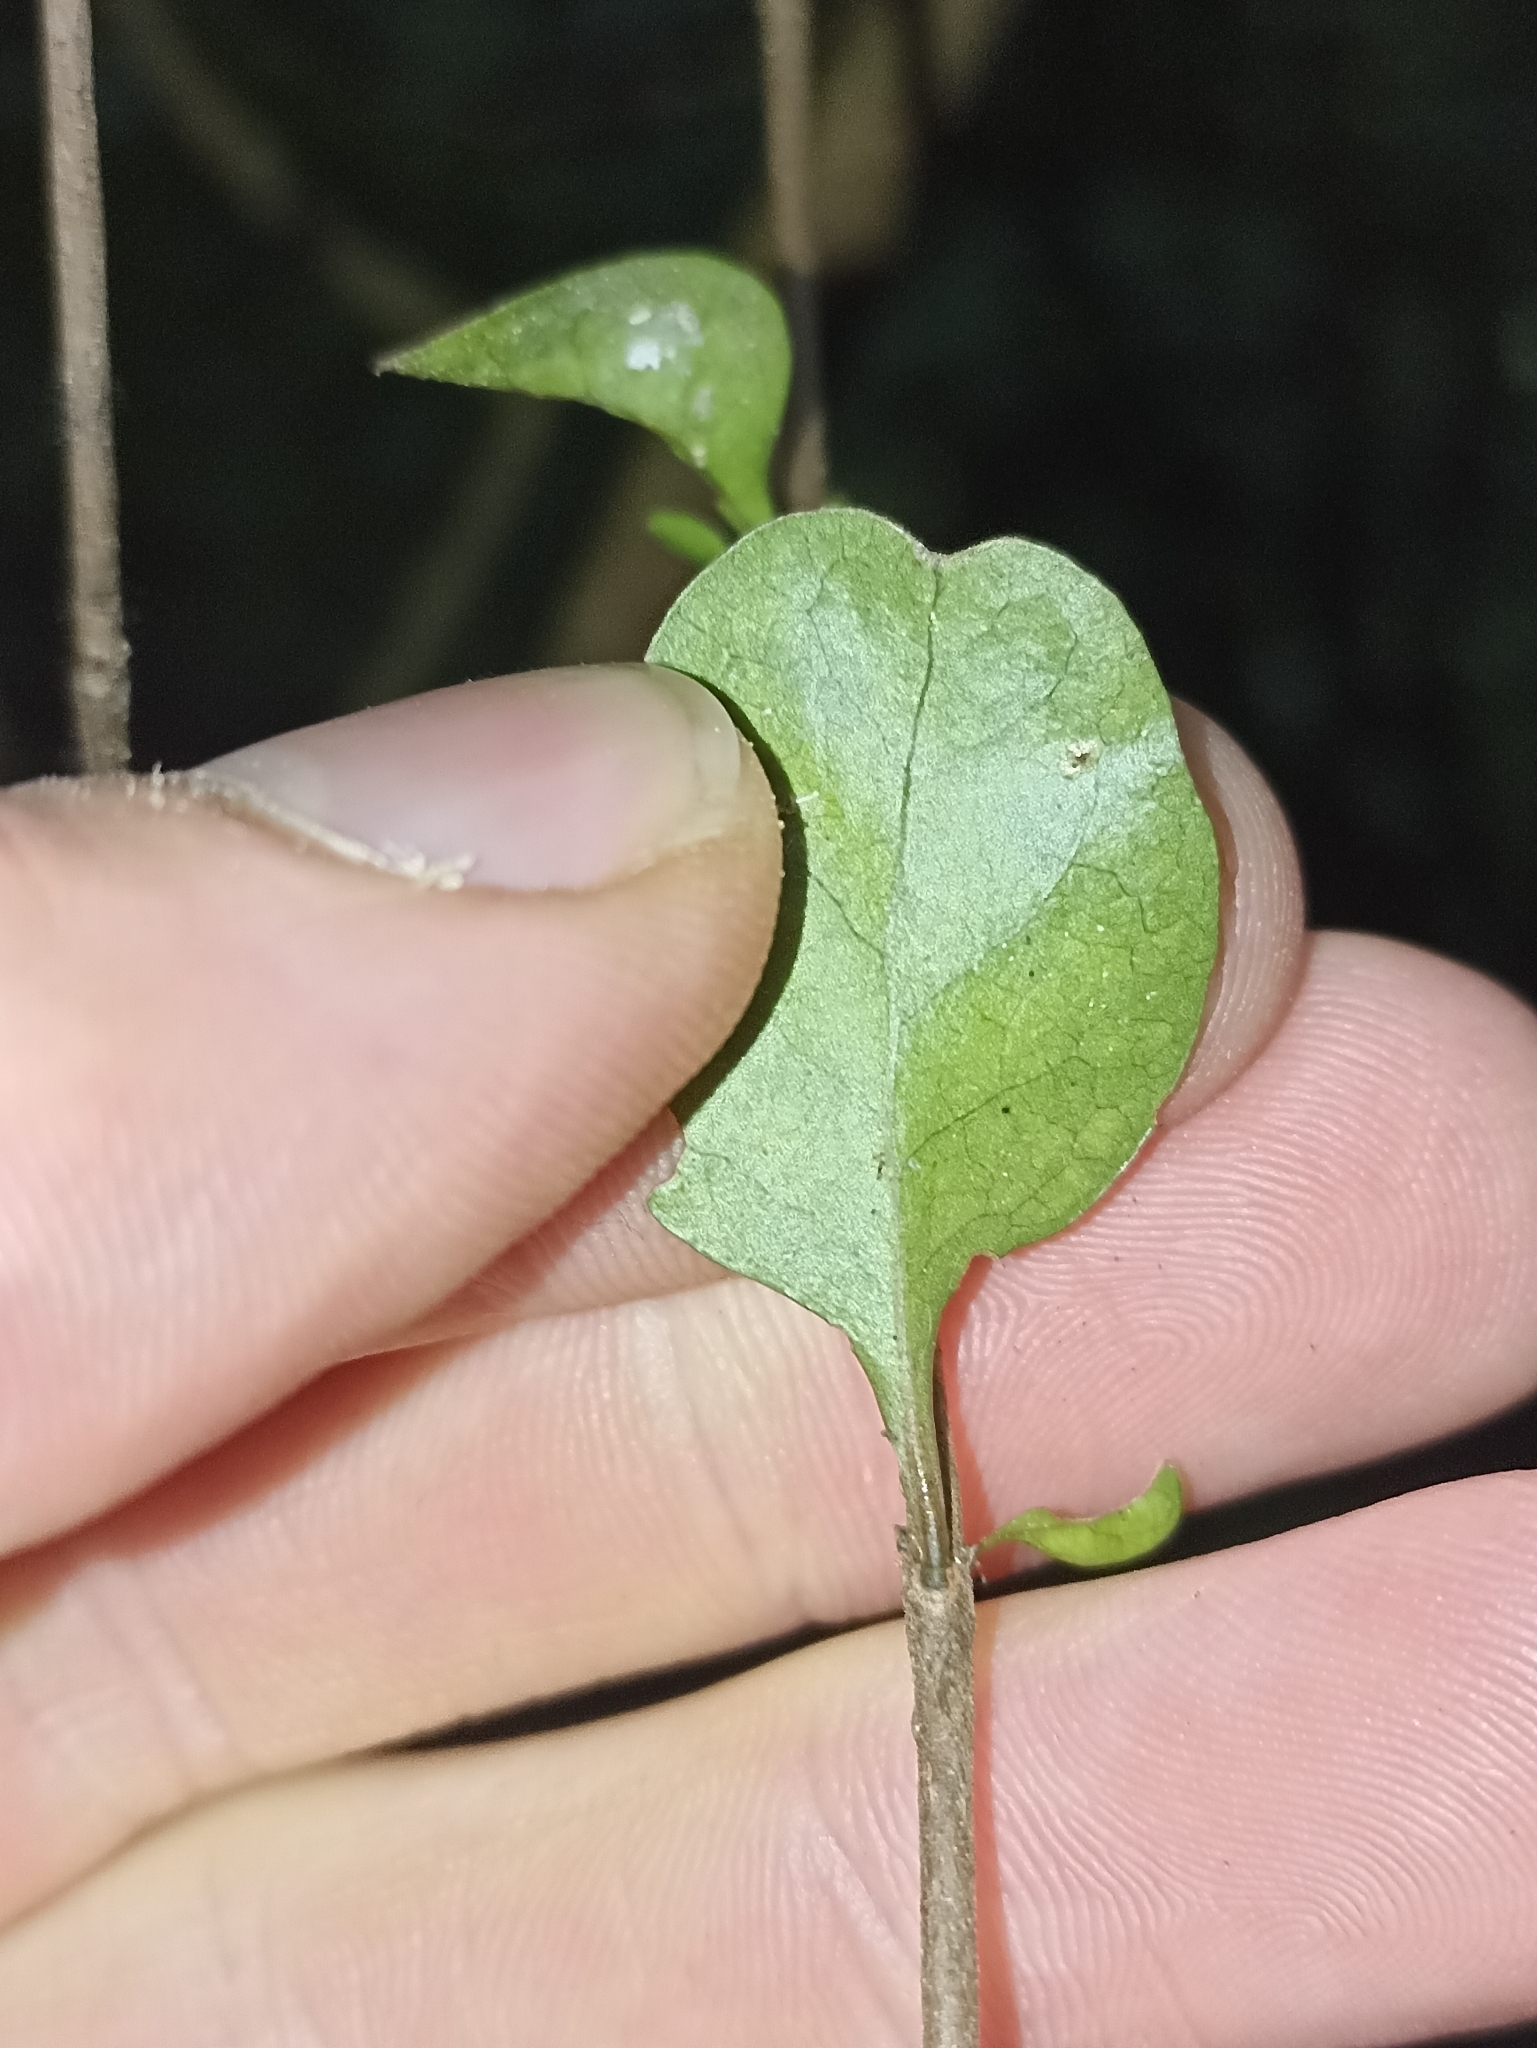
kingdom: Plantae
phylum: Tracheophyta
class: Magnoliopsida
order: Gentianales
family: Rubiaceae
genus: Coprosma
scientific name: Coprosma rigida
